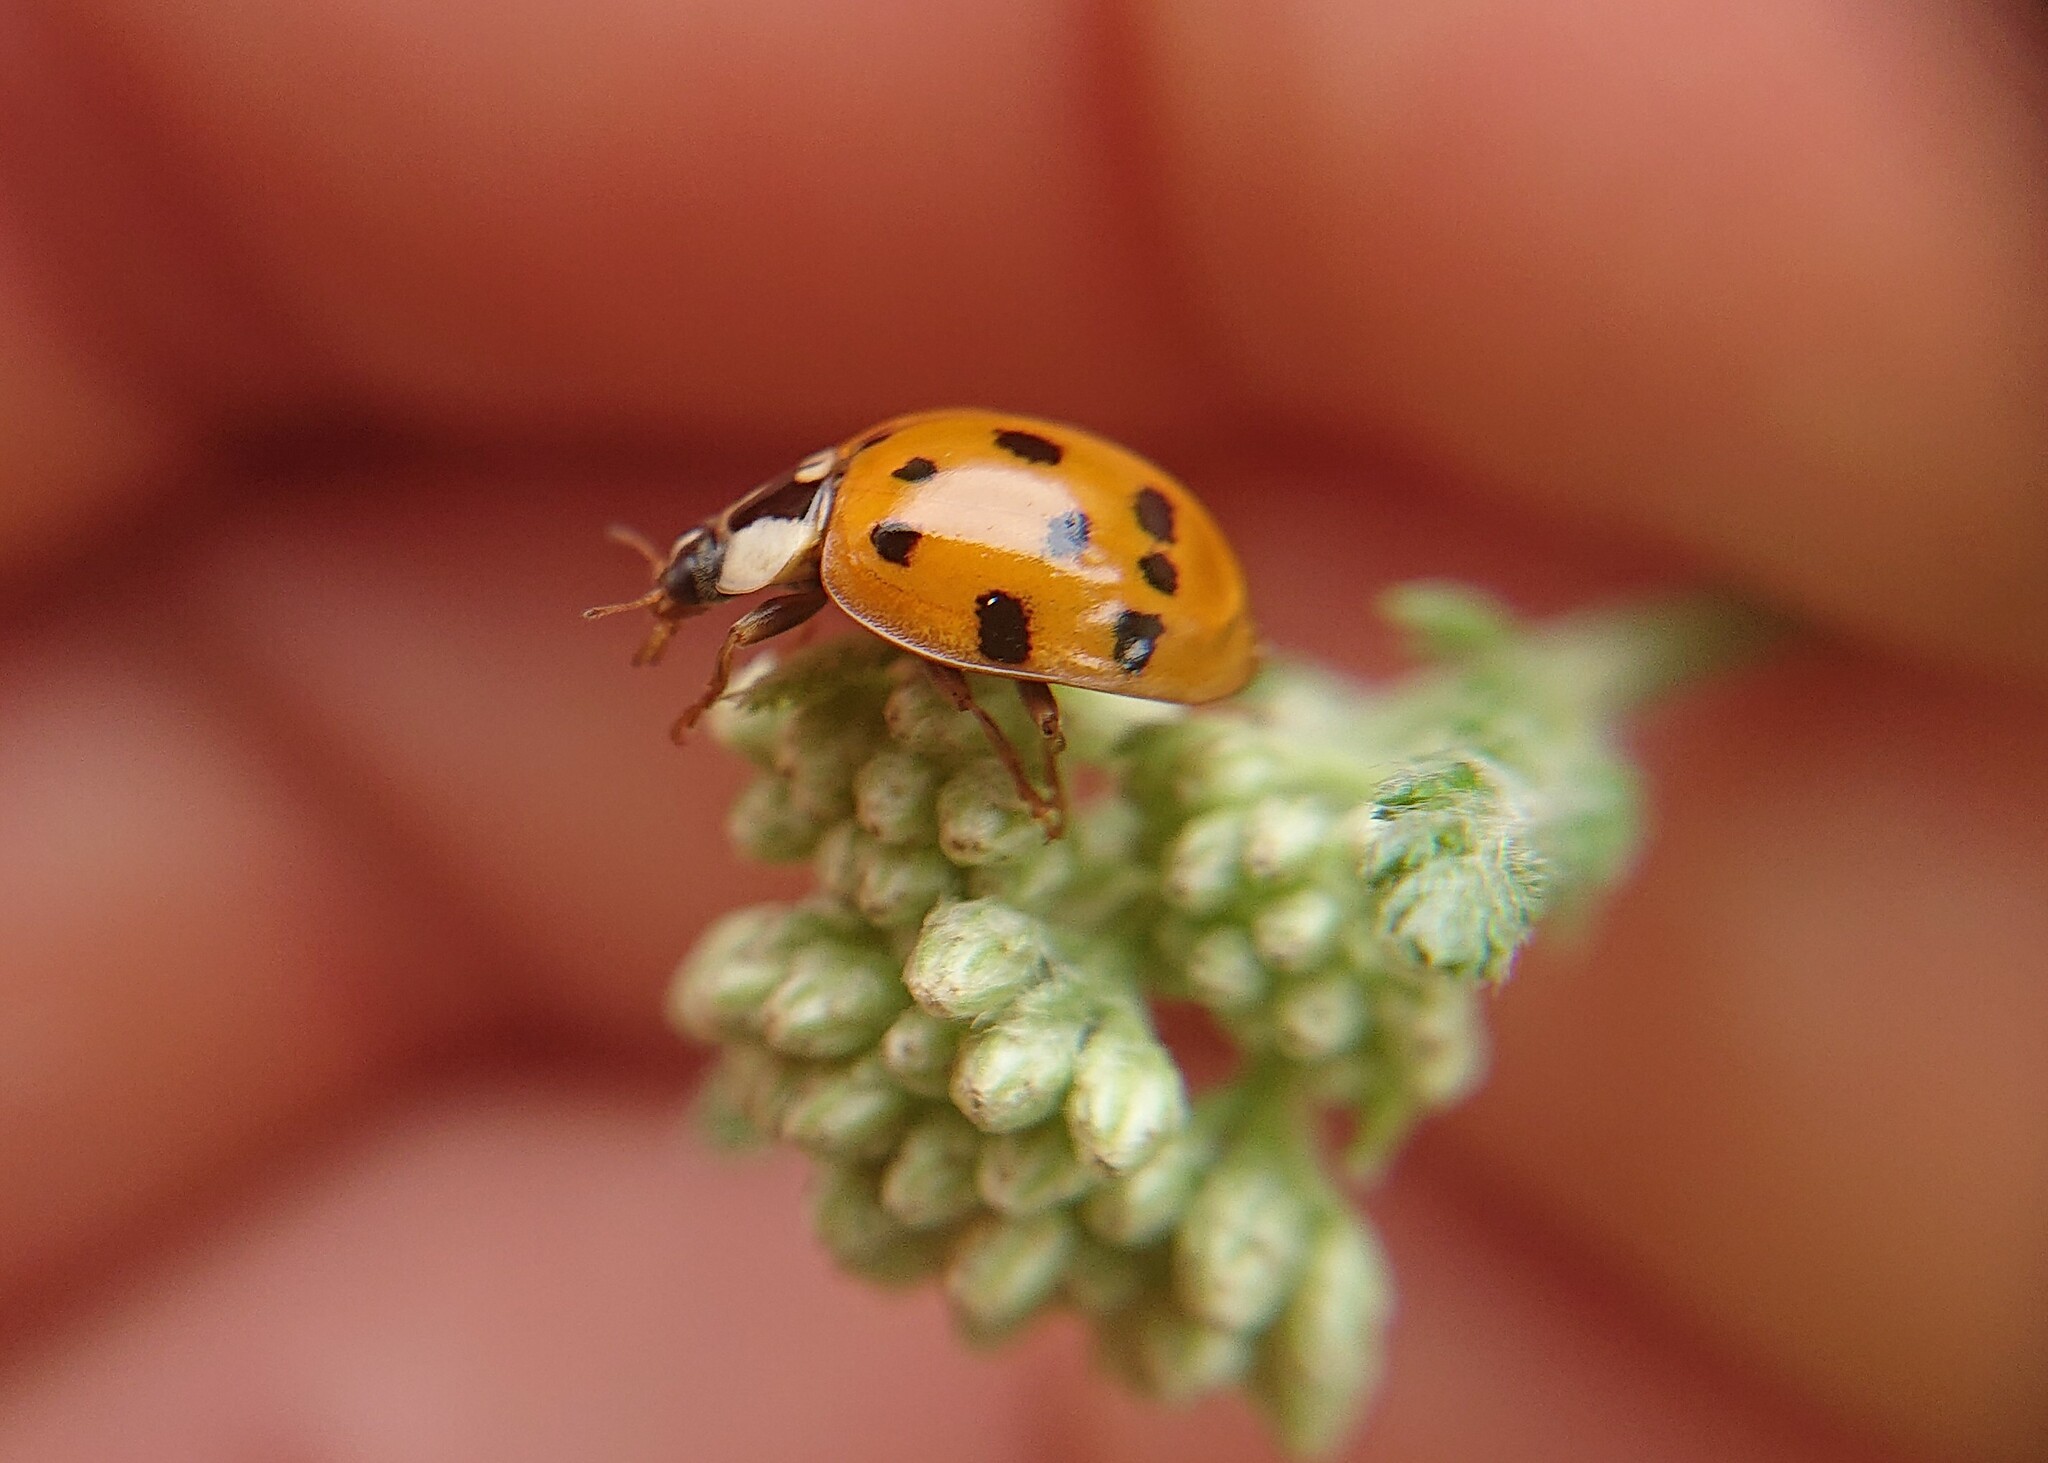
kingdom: Animalia
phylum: Arthropoda
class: Insecta
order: Coleoptera
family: Coccinellidae
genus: Harmonia
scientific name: Harmonia axyridis
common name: Harlequin ladybird
